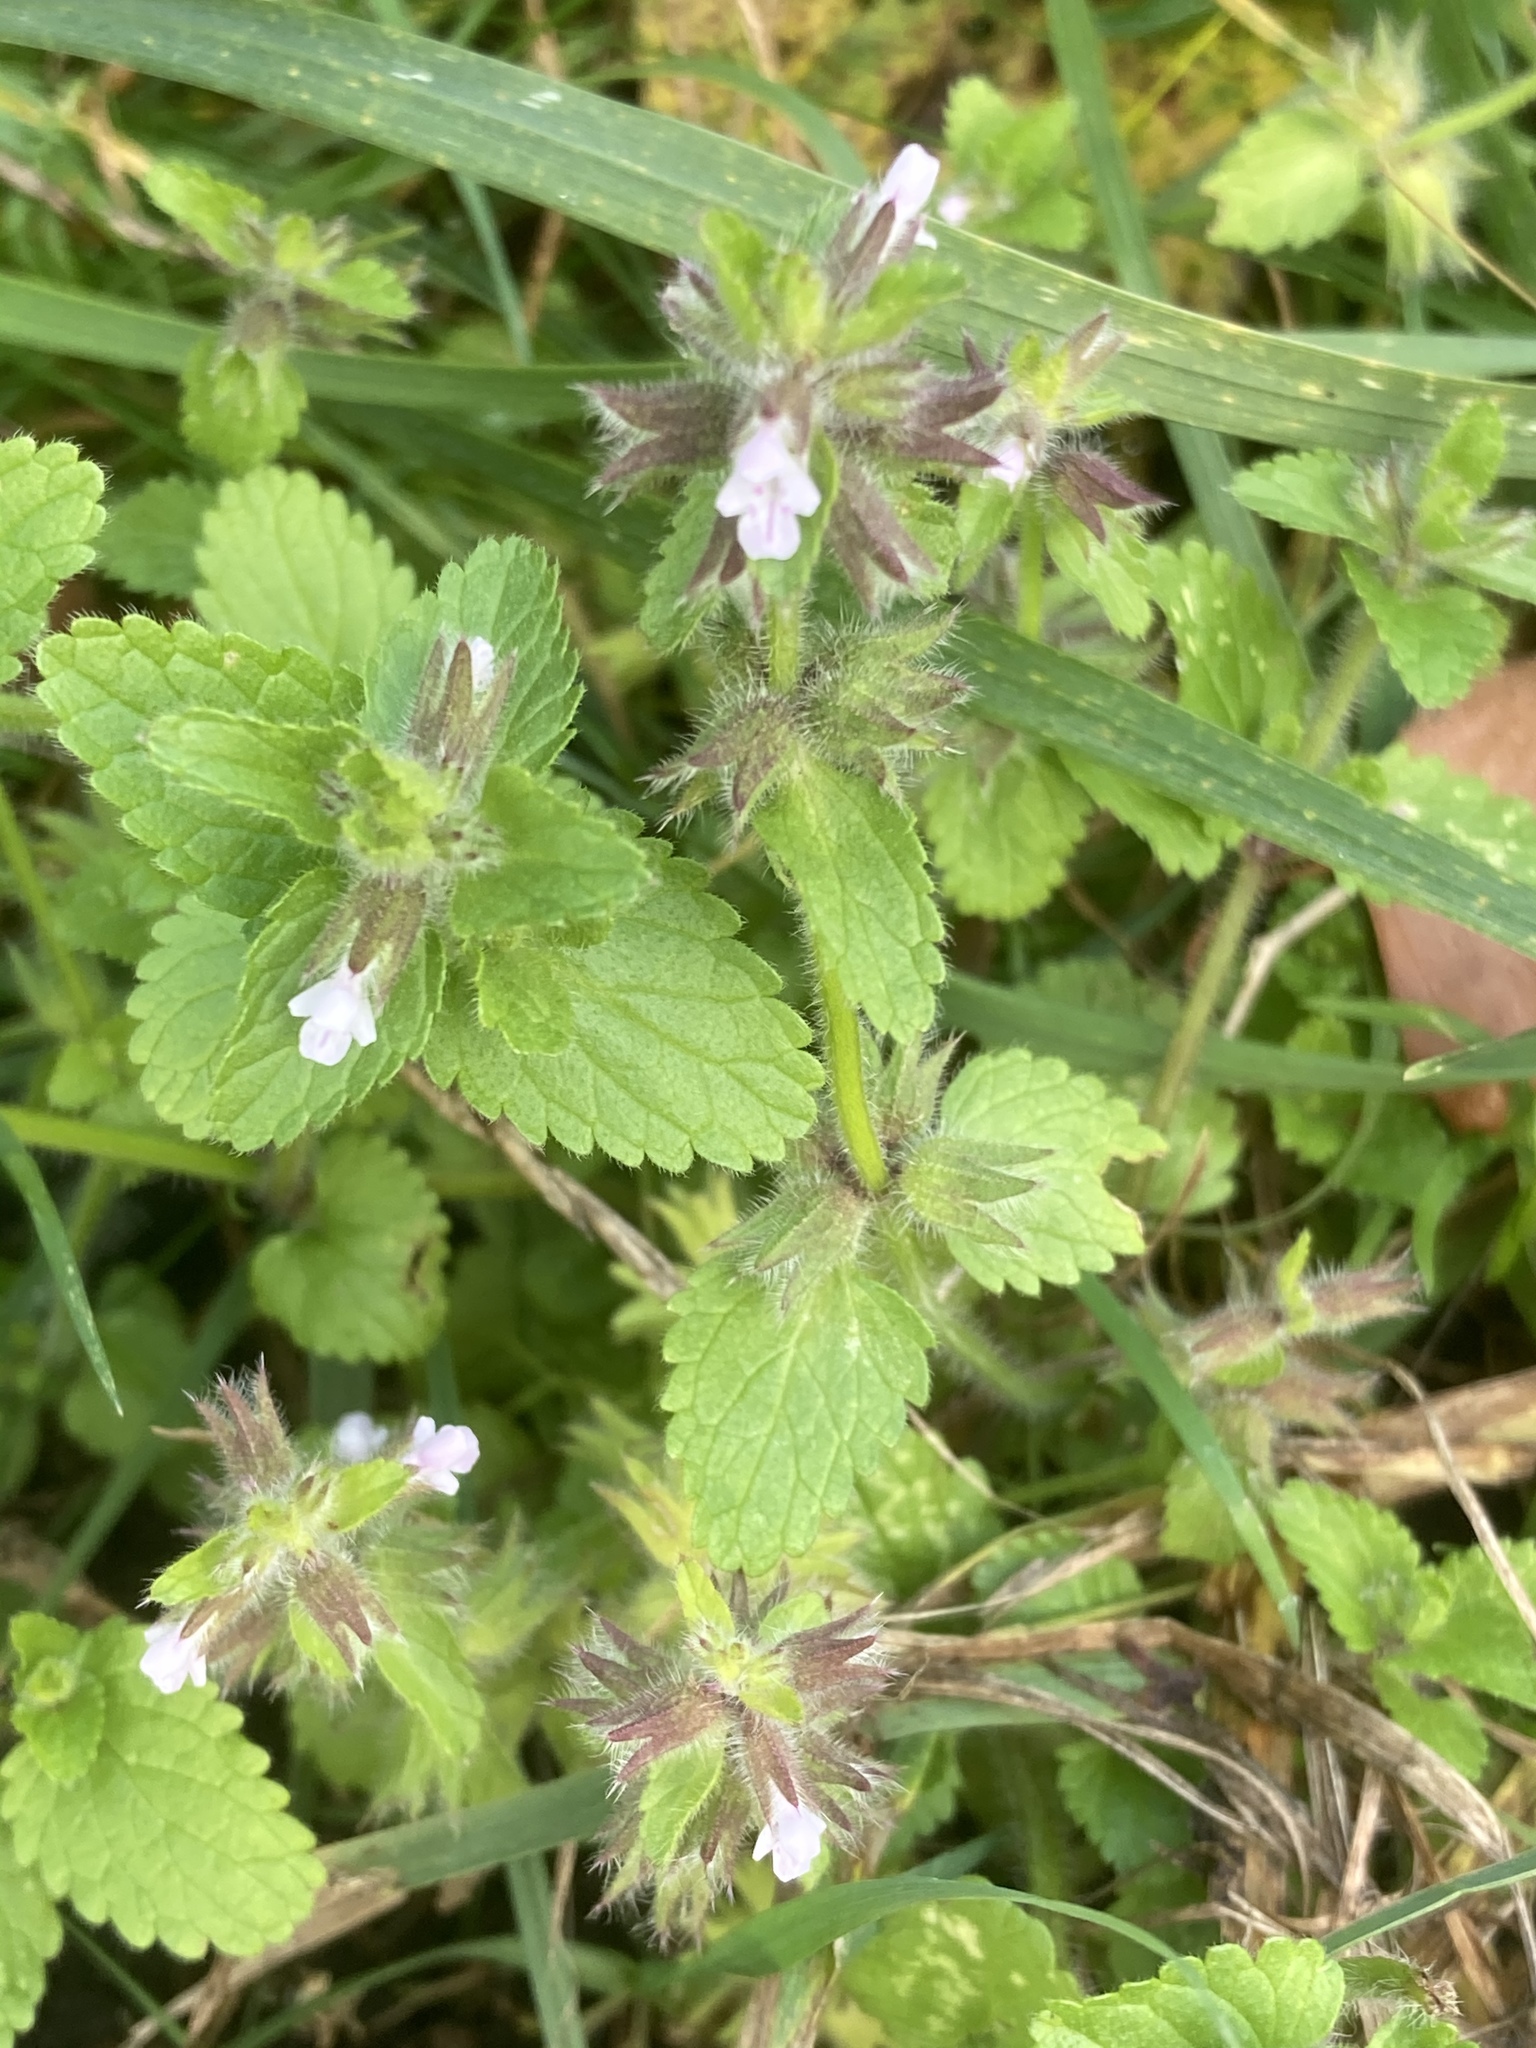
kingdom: Plantae
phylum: Tracheophyta
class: Magnoliopsida
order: Lamiales
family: Lamiaceae
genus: Stachys
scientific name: Stachys arvensis
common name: Field woundwort
